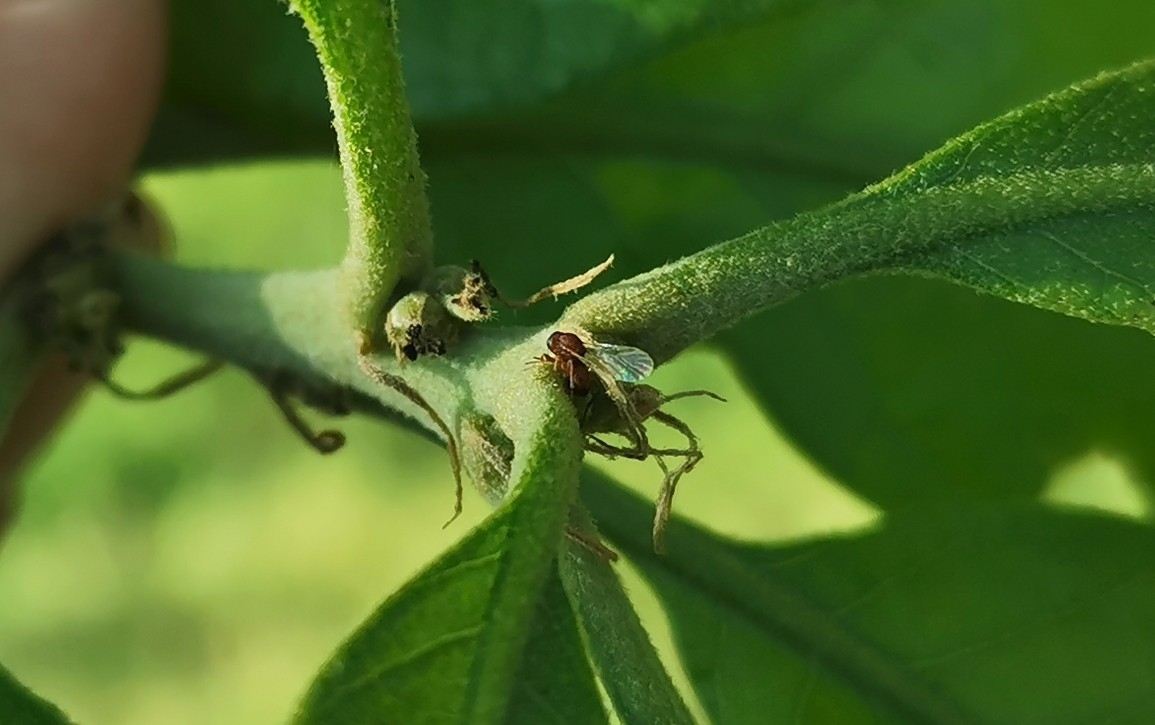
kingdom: Animalia
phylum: Arthropoda
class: Insecta
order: Hymenoptera
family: Cynipidae
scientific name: Cynipidae
